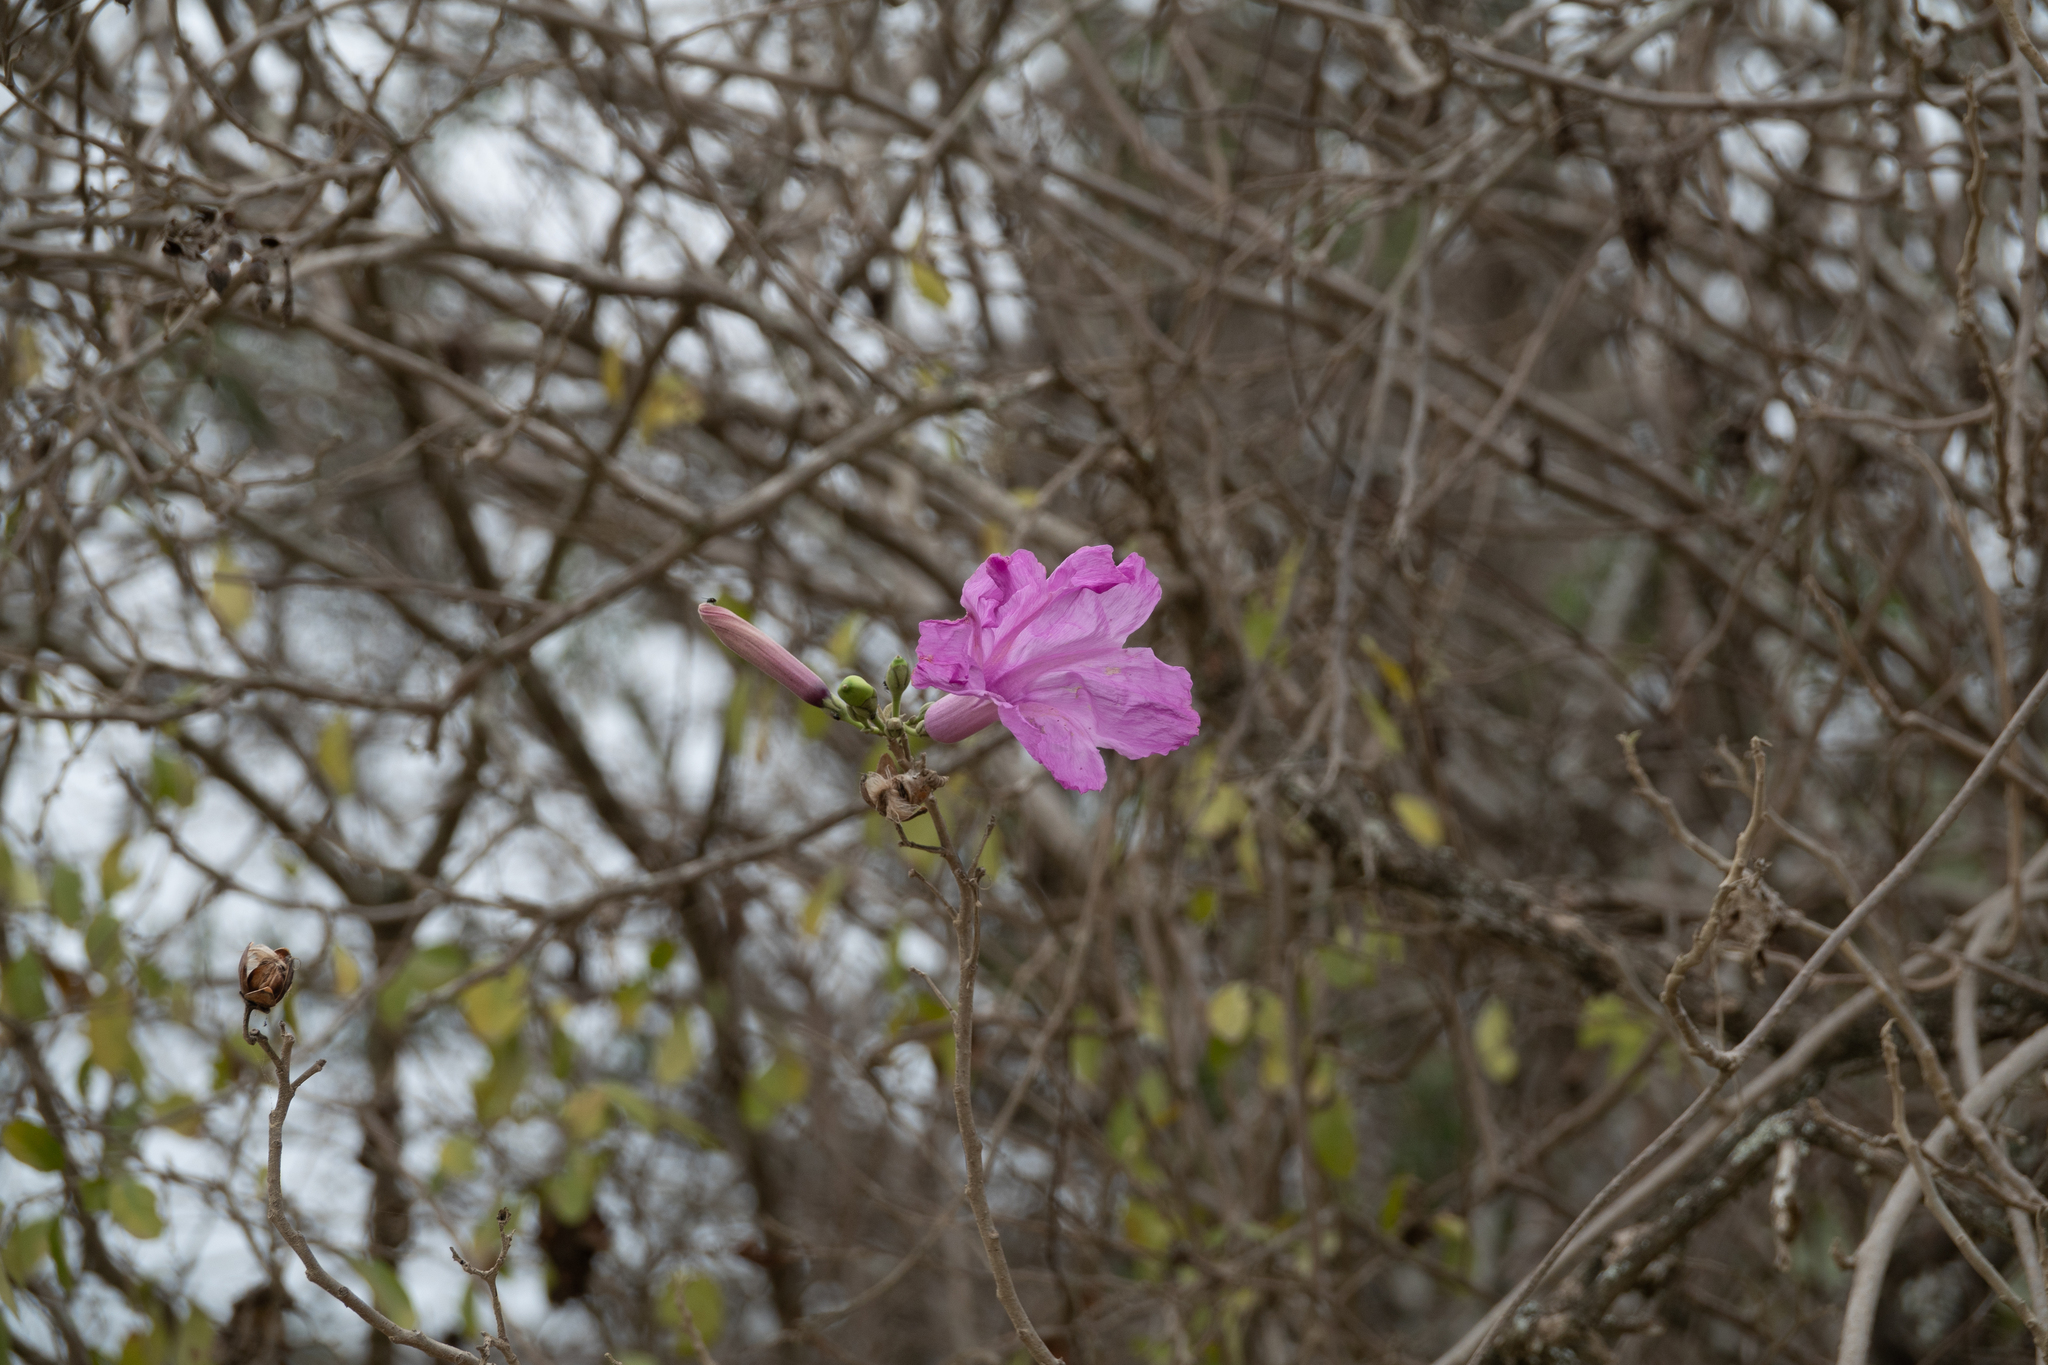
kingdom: Plantae
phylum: Tracheophyta
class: Magnoliopsida
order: Solanales
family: Convolvulaceae
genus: Ipomoea
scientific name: Ipomoea carnea
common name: Morning-glory
